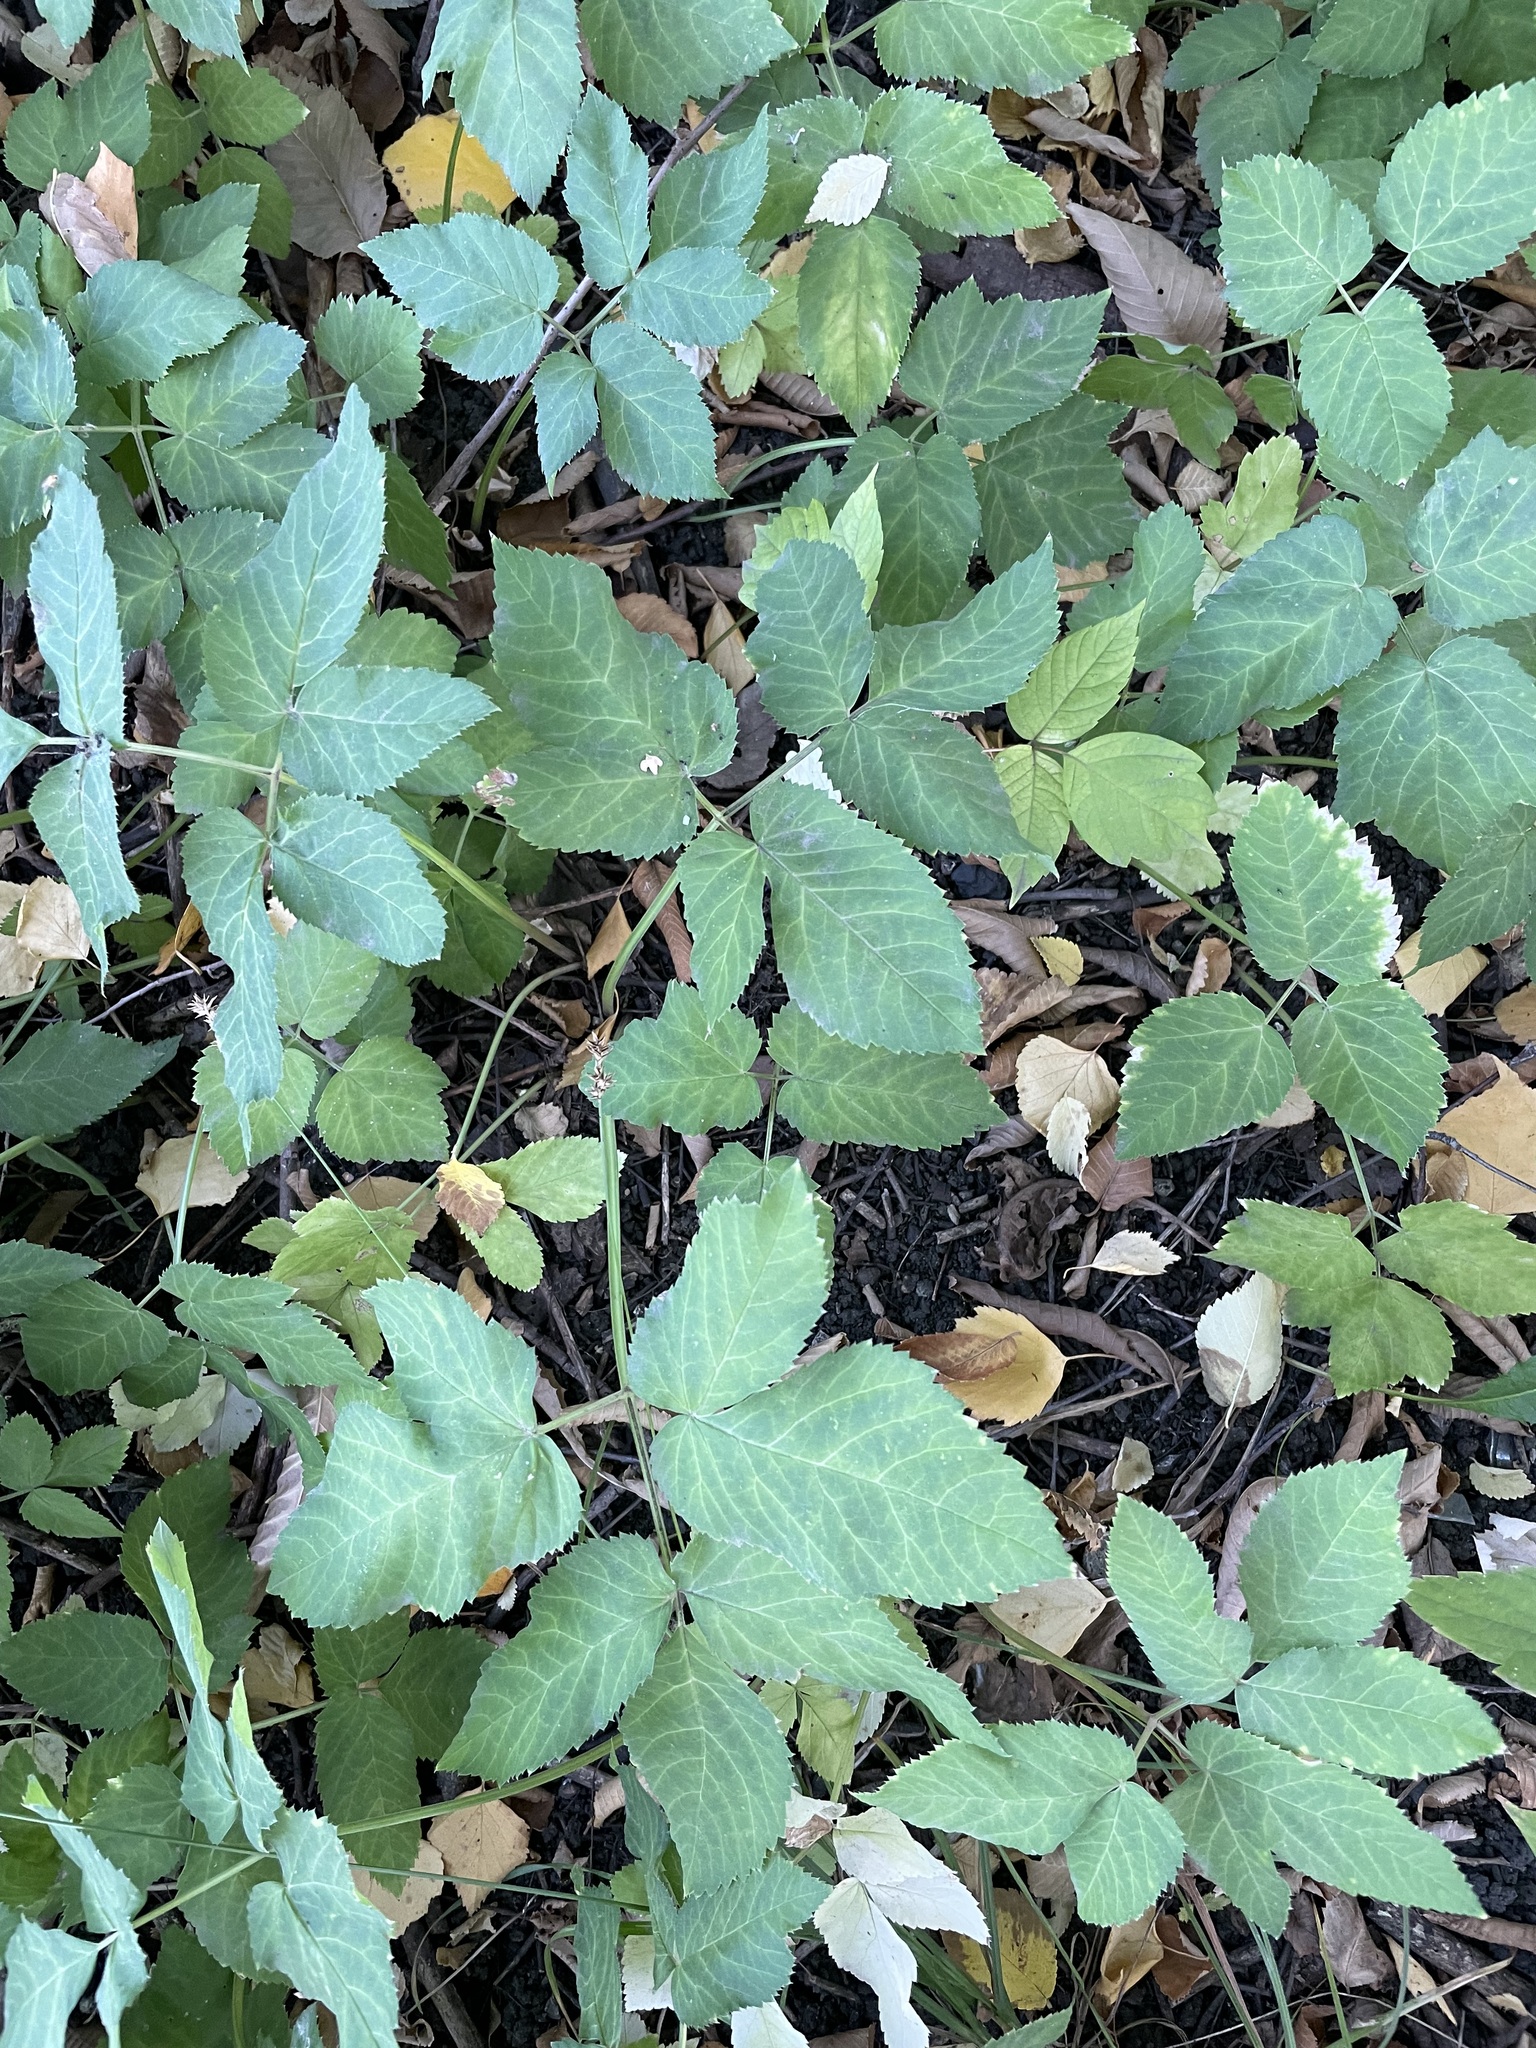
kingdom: Plantae
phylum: Tracheophyta
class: Magnoliopsida
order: Apiales
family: Apiaceae
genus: Aegopodium
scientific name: Aegopodium podagraria
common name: Ground-elder
